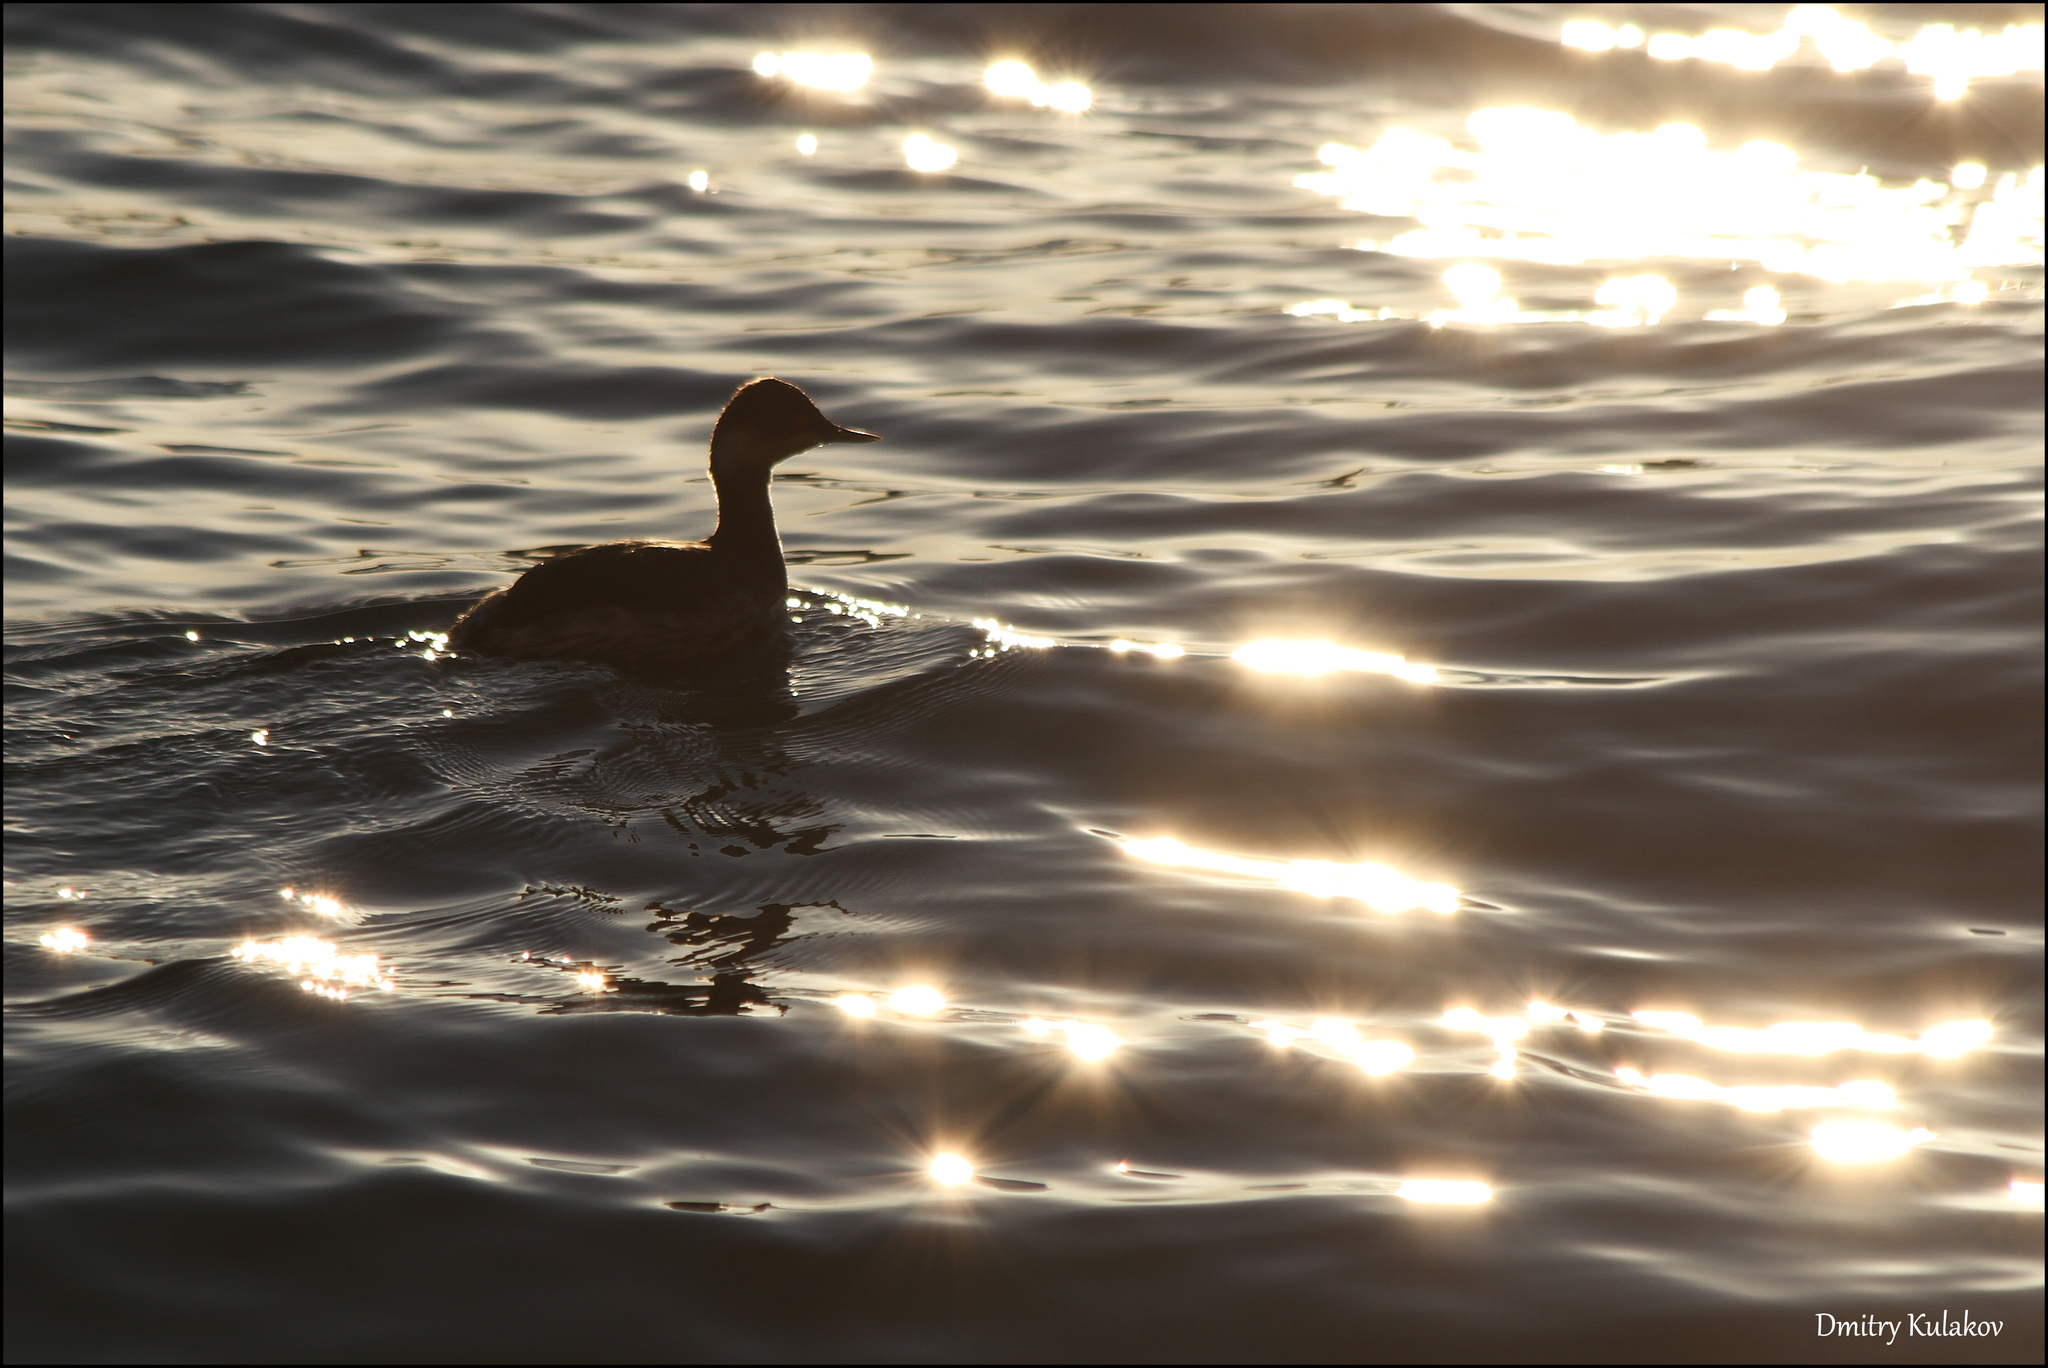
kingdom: Animalia
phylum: Chordata
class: Aves
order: Podicipediformes
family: Podicipedidae
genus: Podiceps
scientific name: Podiceps nigricollis
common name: Black-necked grebe
